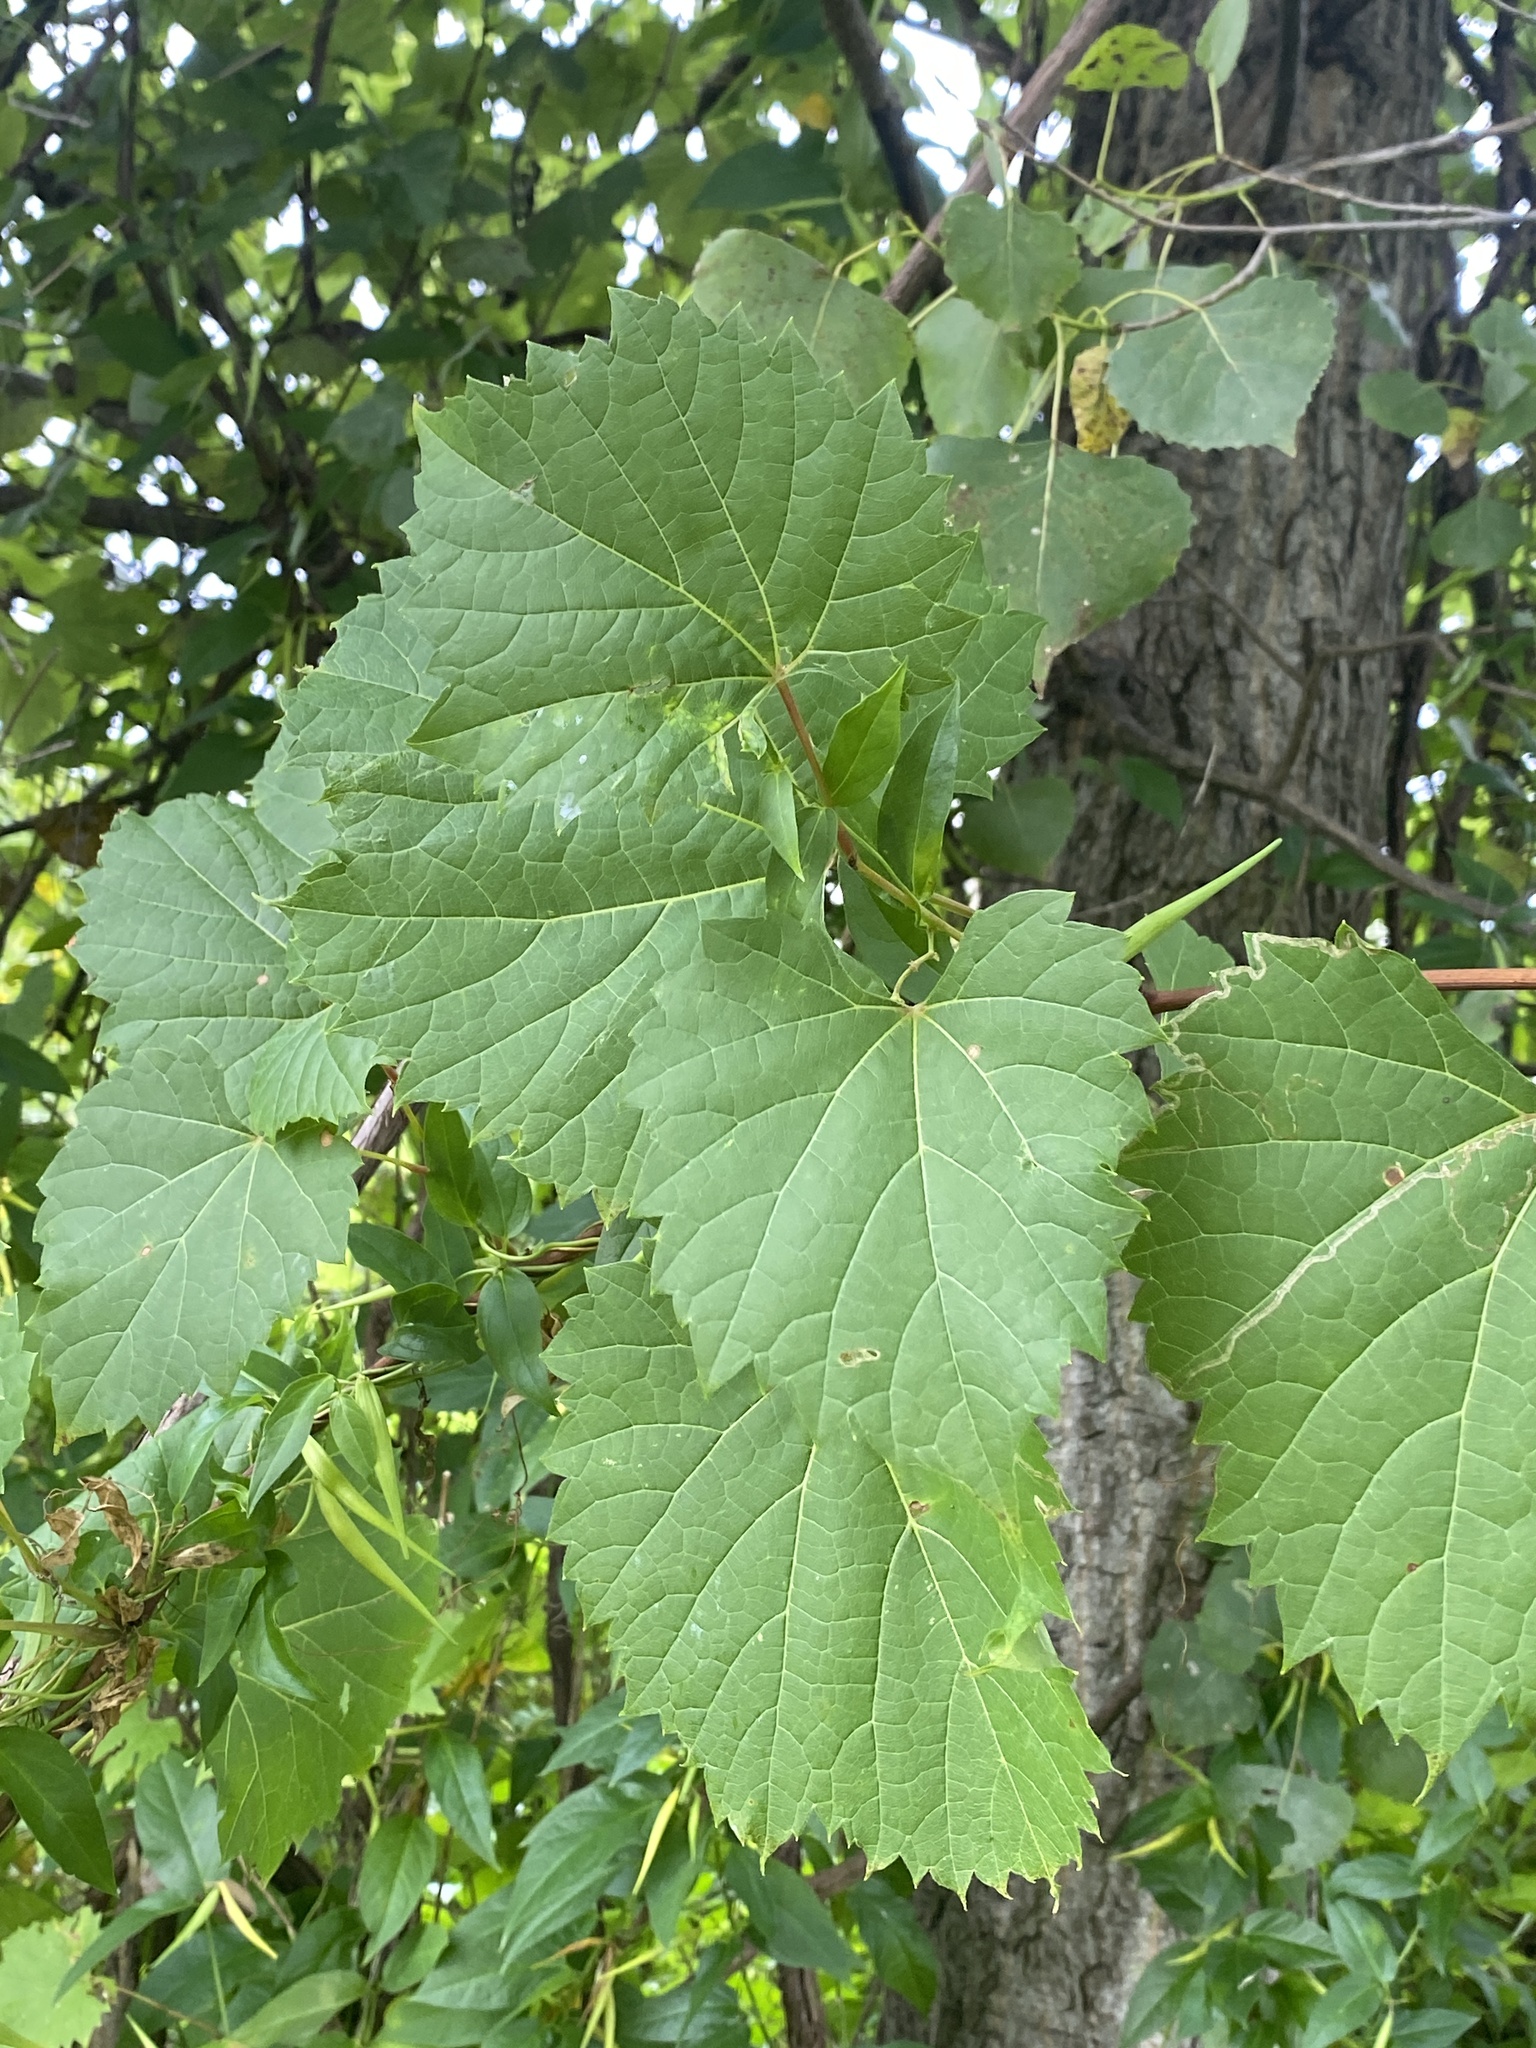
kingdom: Plantae
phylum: Tracheophyta
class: Magnoliopsida
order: Vitales
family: Vitaceae
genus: Vitis
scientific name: Vitis riparia
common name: Frost grape
